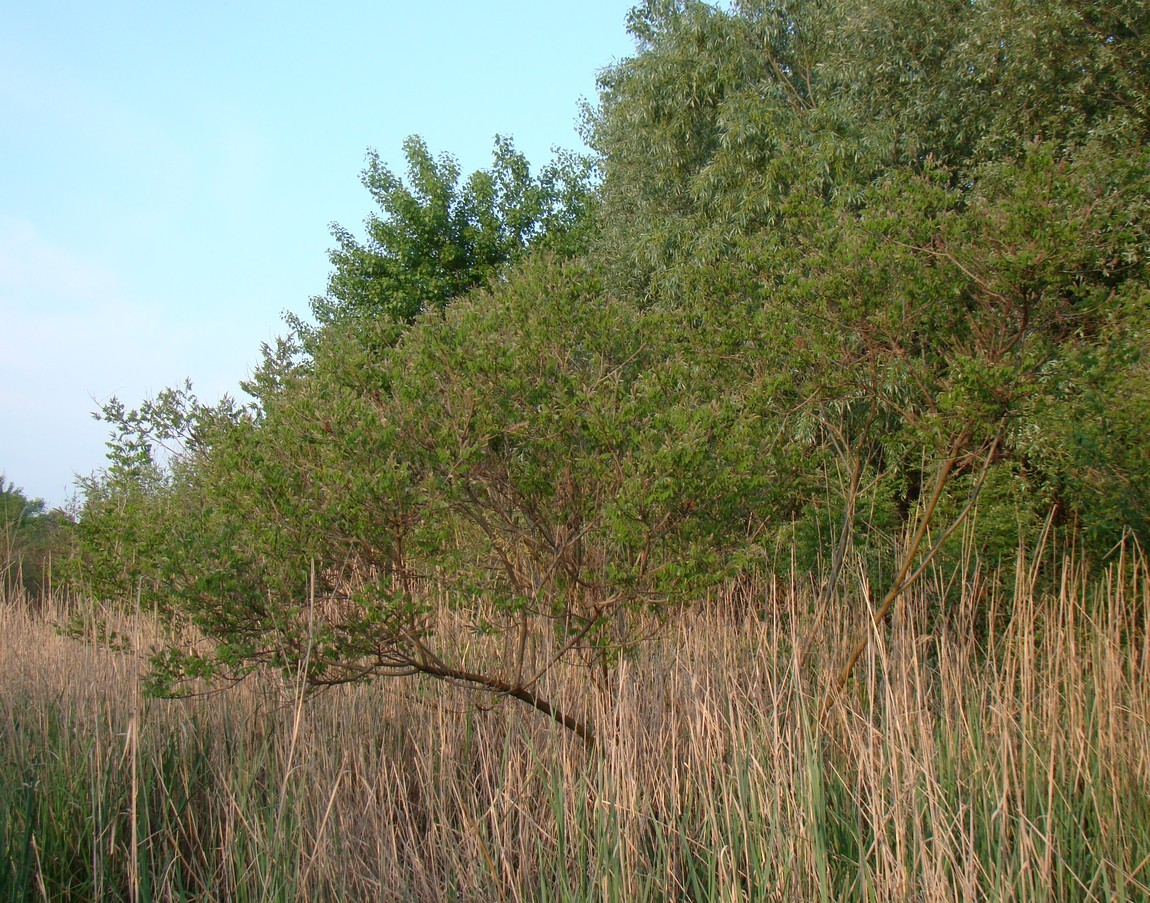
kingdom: Plantae
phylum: Tracheophyta
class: Magnoliopsida
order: Fabales
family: Fabaceae
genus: Amorpha
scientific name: Amorpha fruticosa
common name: False indigo
